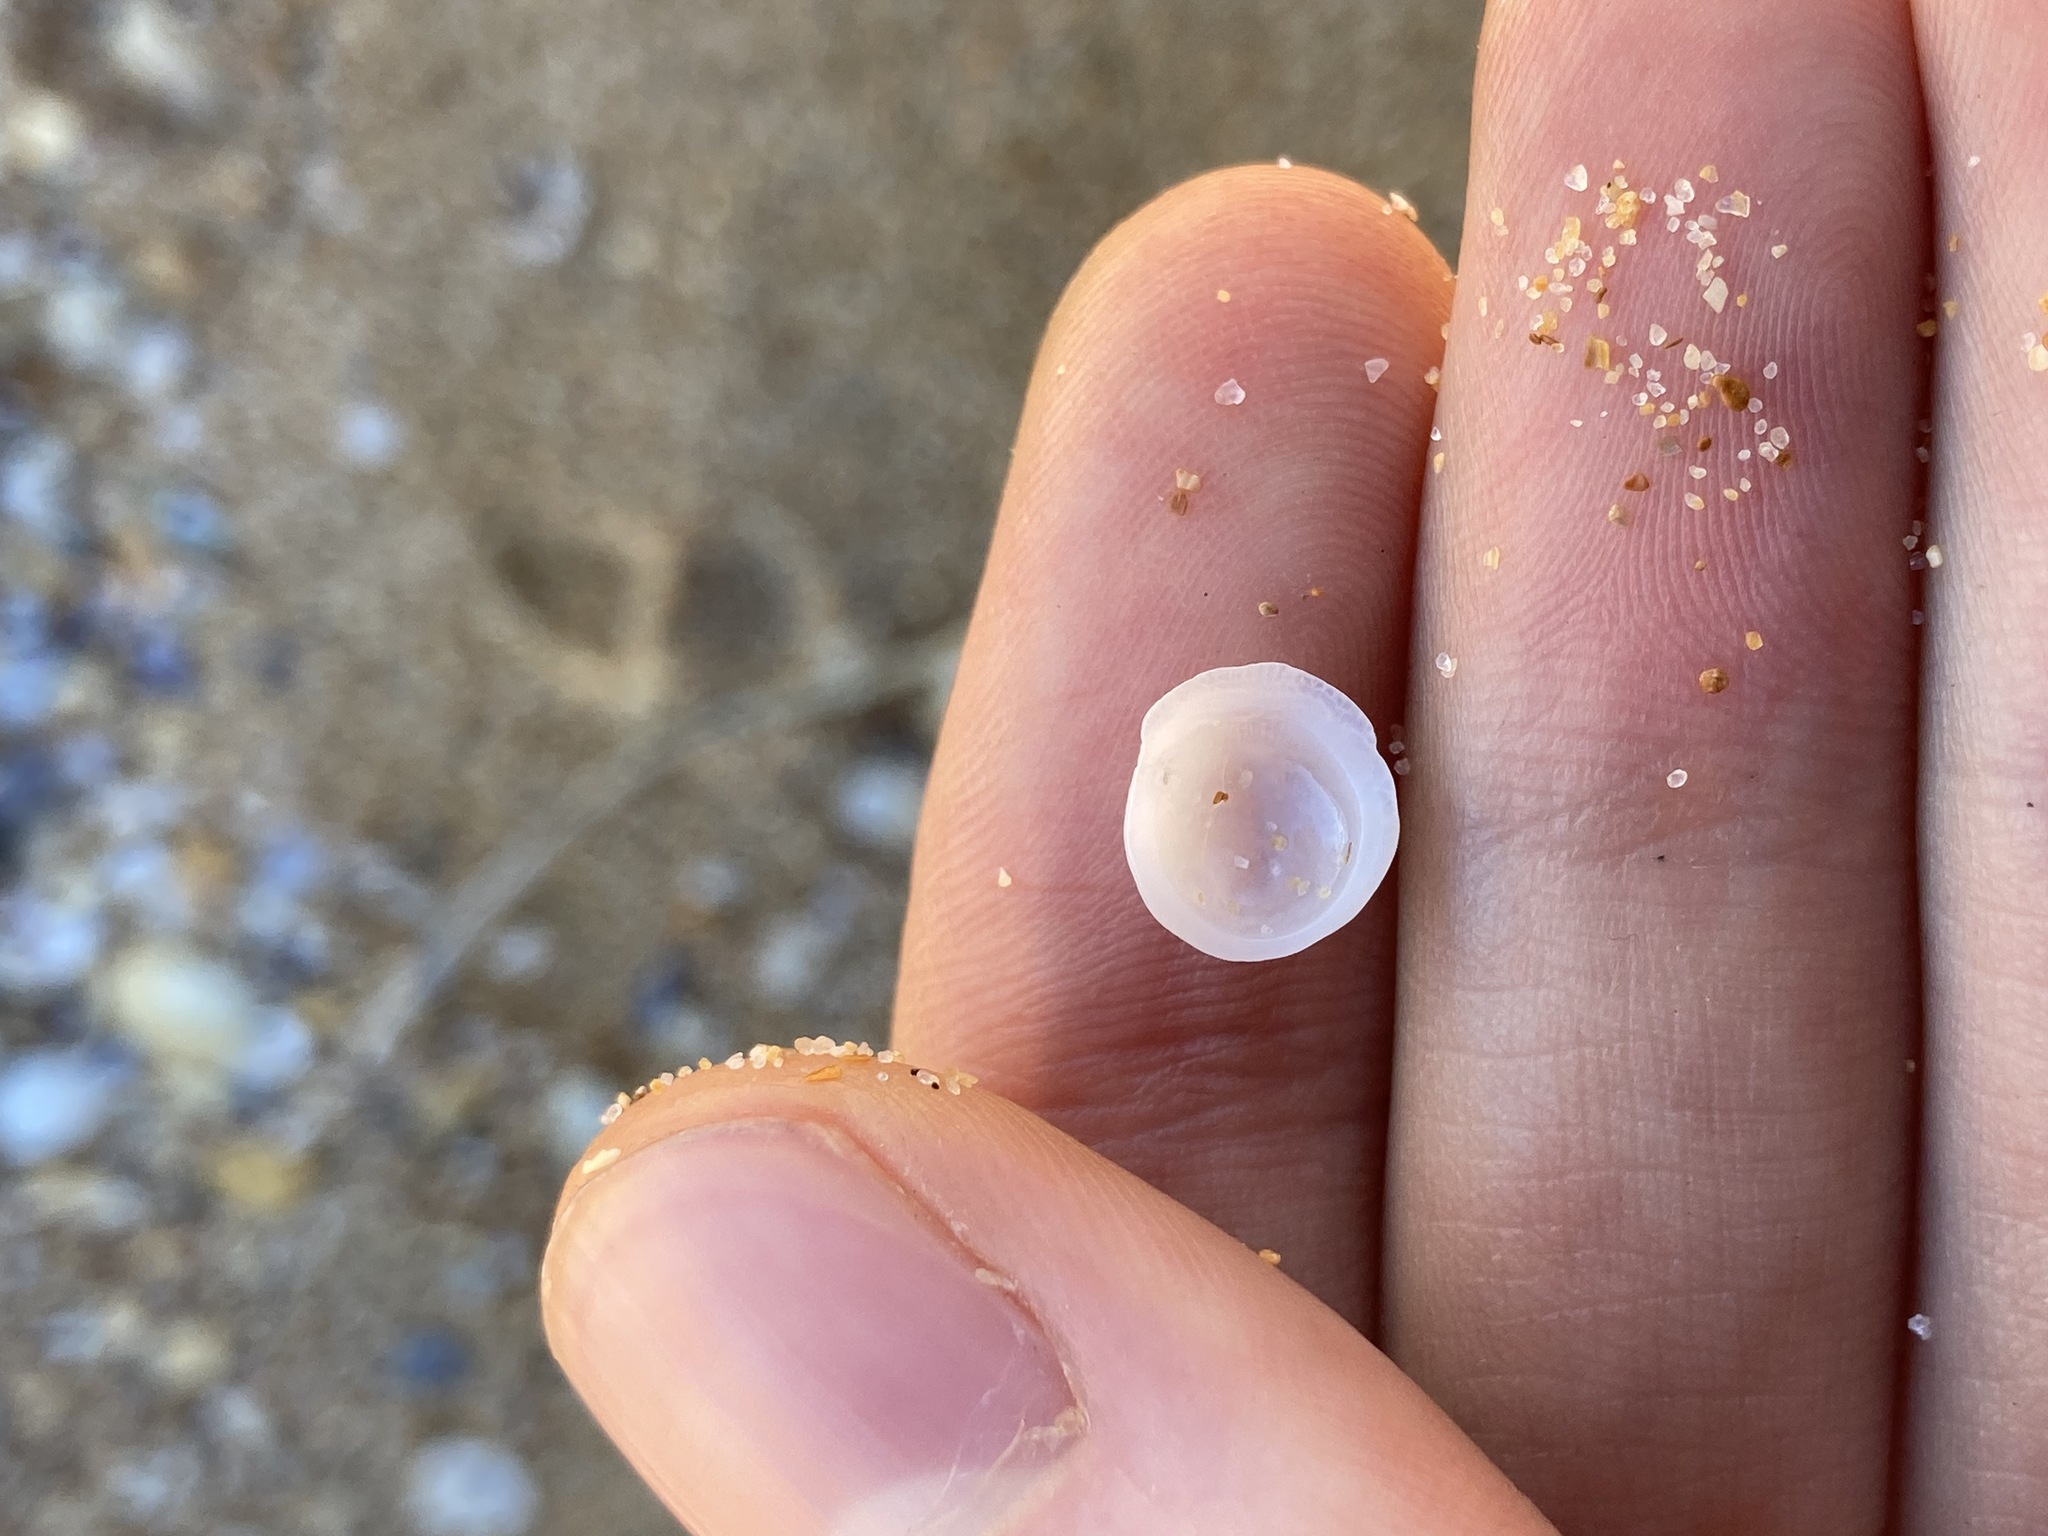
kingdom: Animalia
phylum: Mollusca
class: Gastropoda
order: Littorinimorpha
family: Hipponicidae
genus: Antisabia
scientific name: Antisabia foliacea
